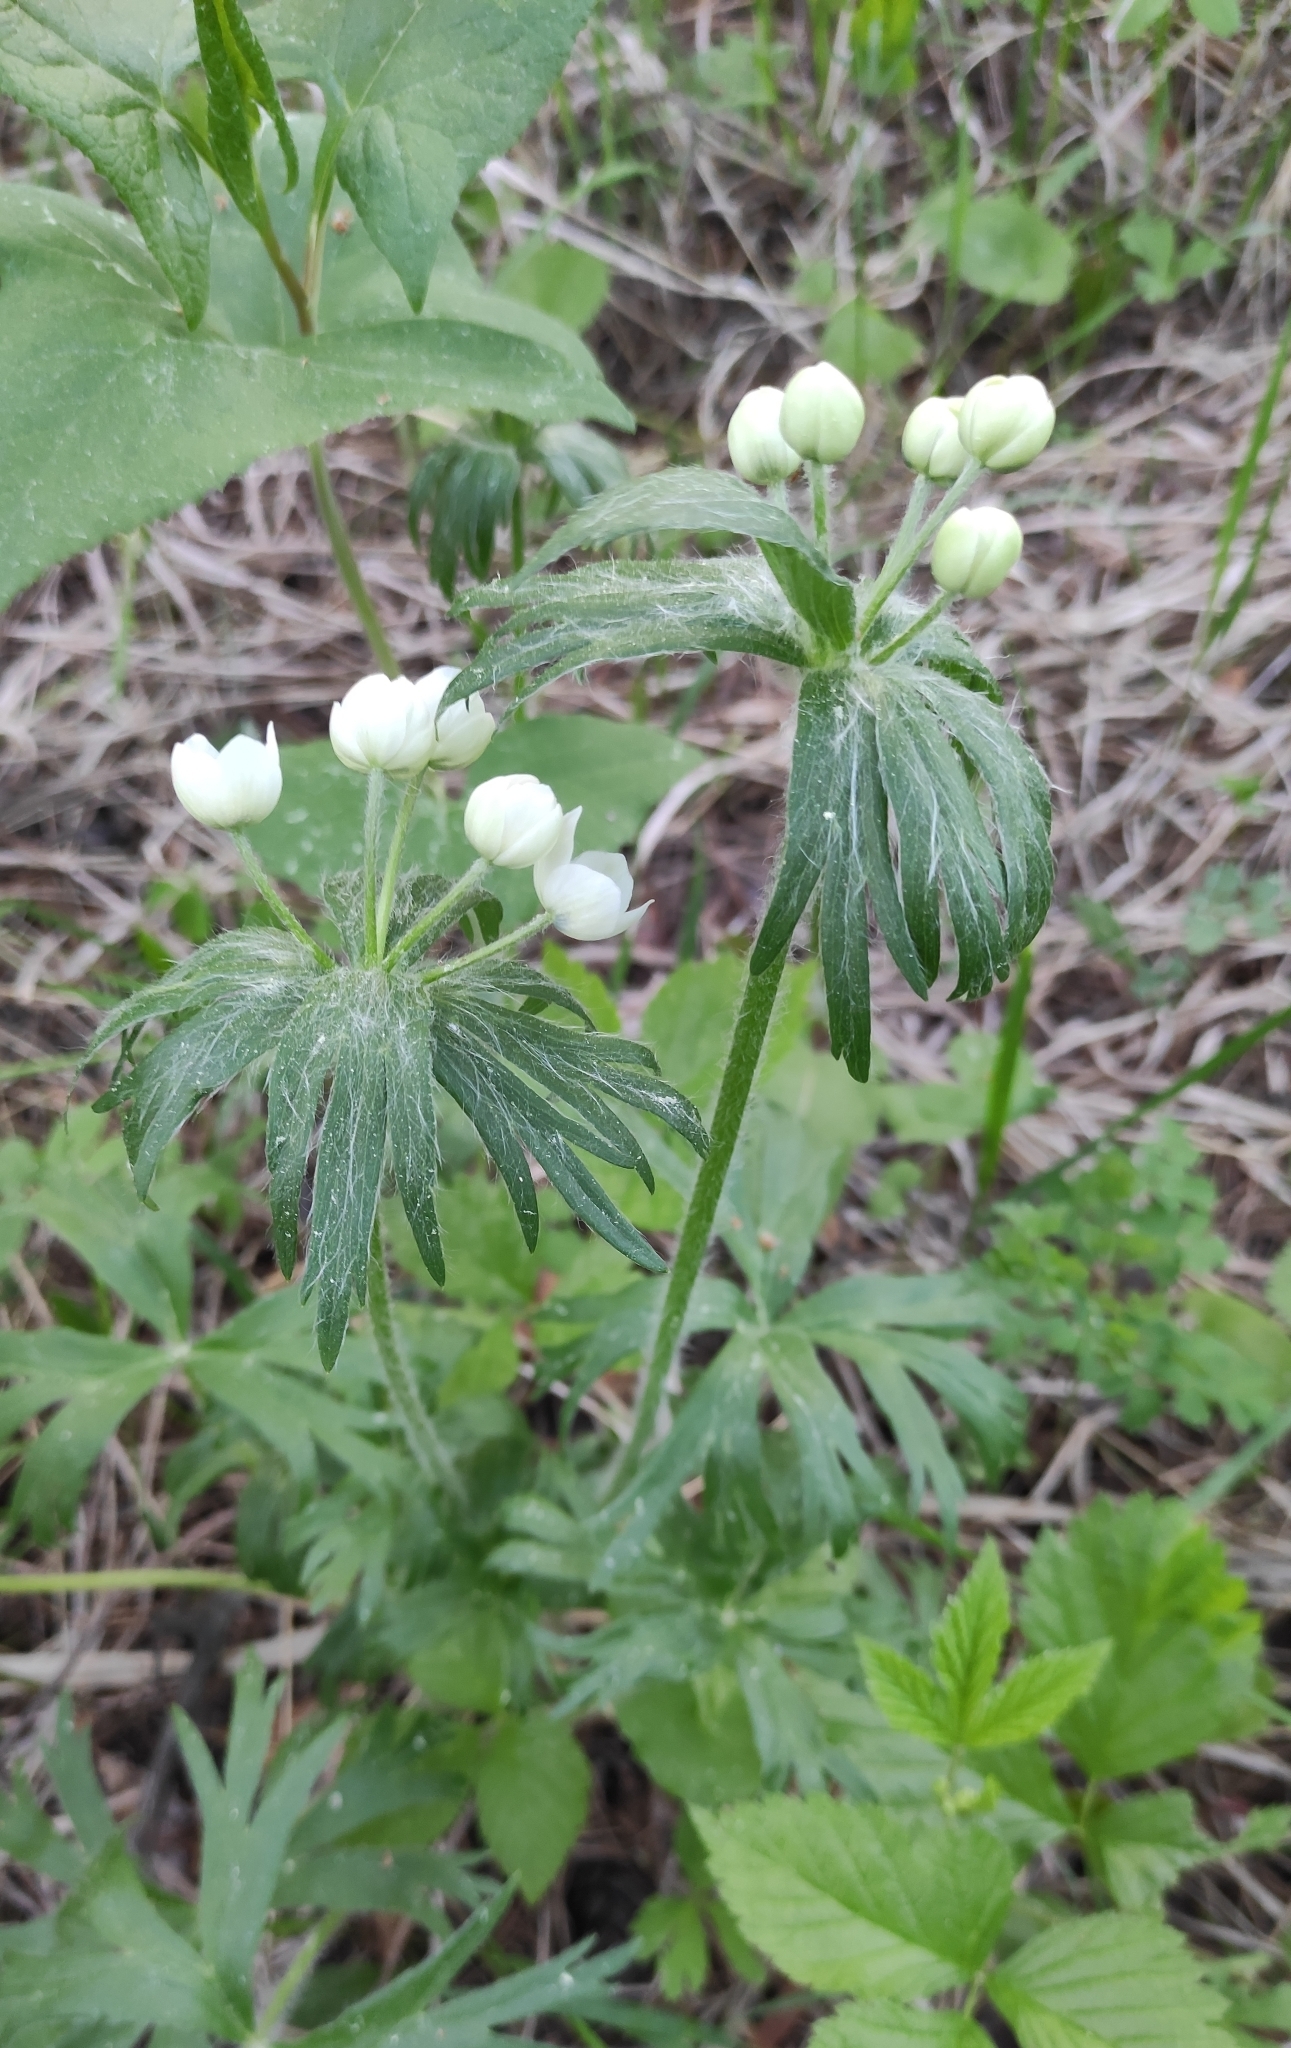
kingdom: Plantae
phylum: Tracheophyta
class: Magnoliopsida
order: Ranunculales
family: Ranunculaceae
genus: Anemonastrum
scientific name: Anemonastrum narcissiflorum
